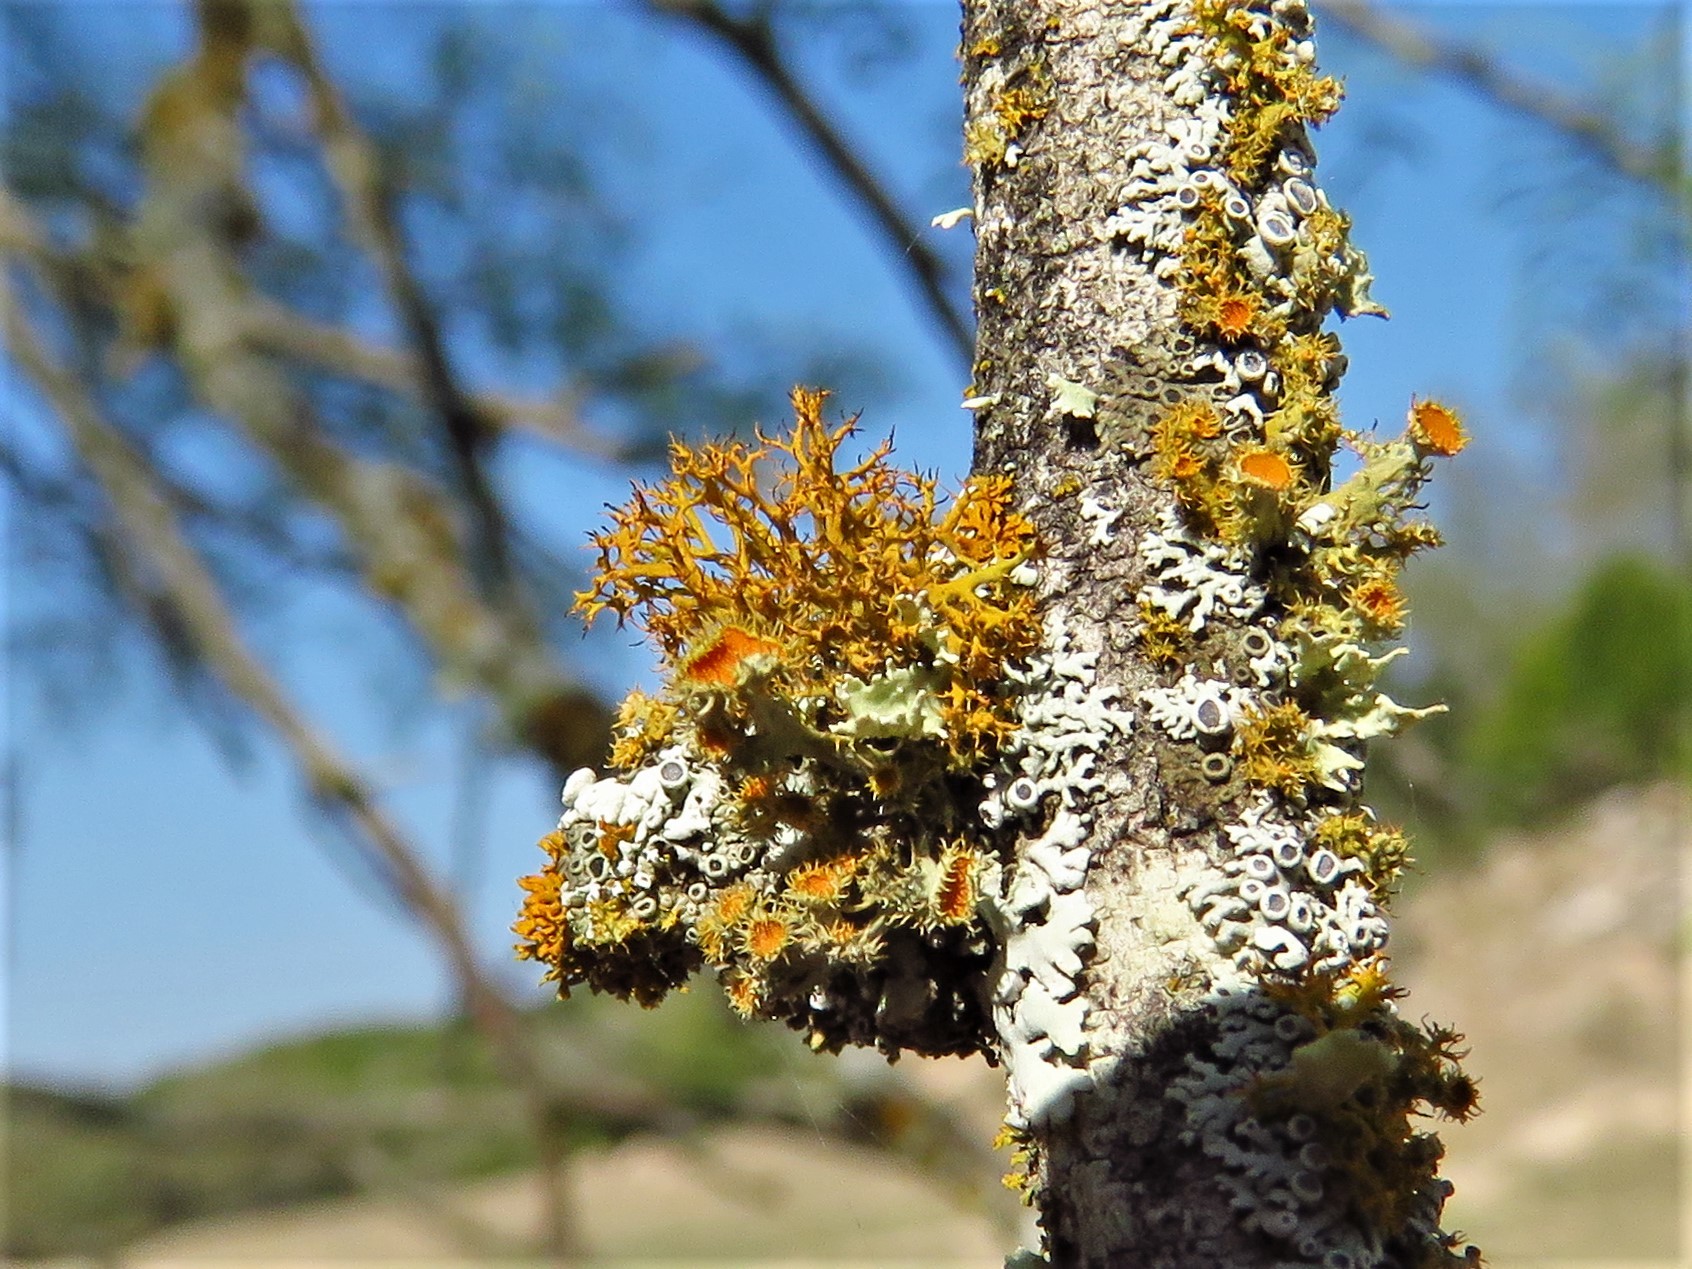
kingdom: Fungi
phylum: Ascomycota
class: Lecanoromycetes
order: Teloschistales
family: Teloschistaceae
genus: Niorma
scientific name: Niorma chrysophthalma
